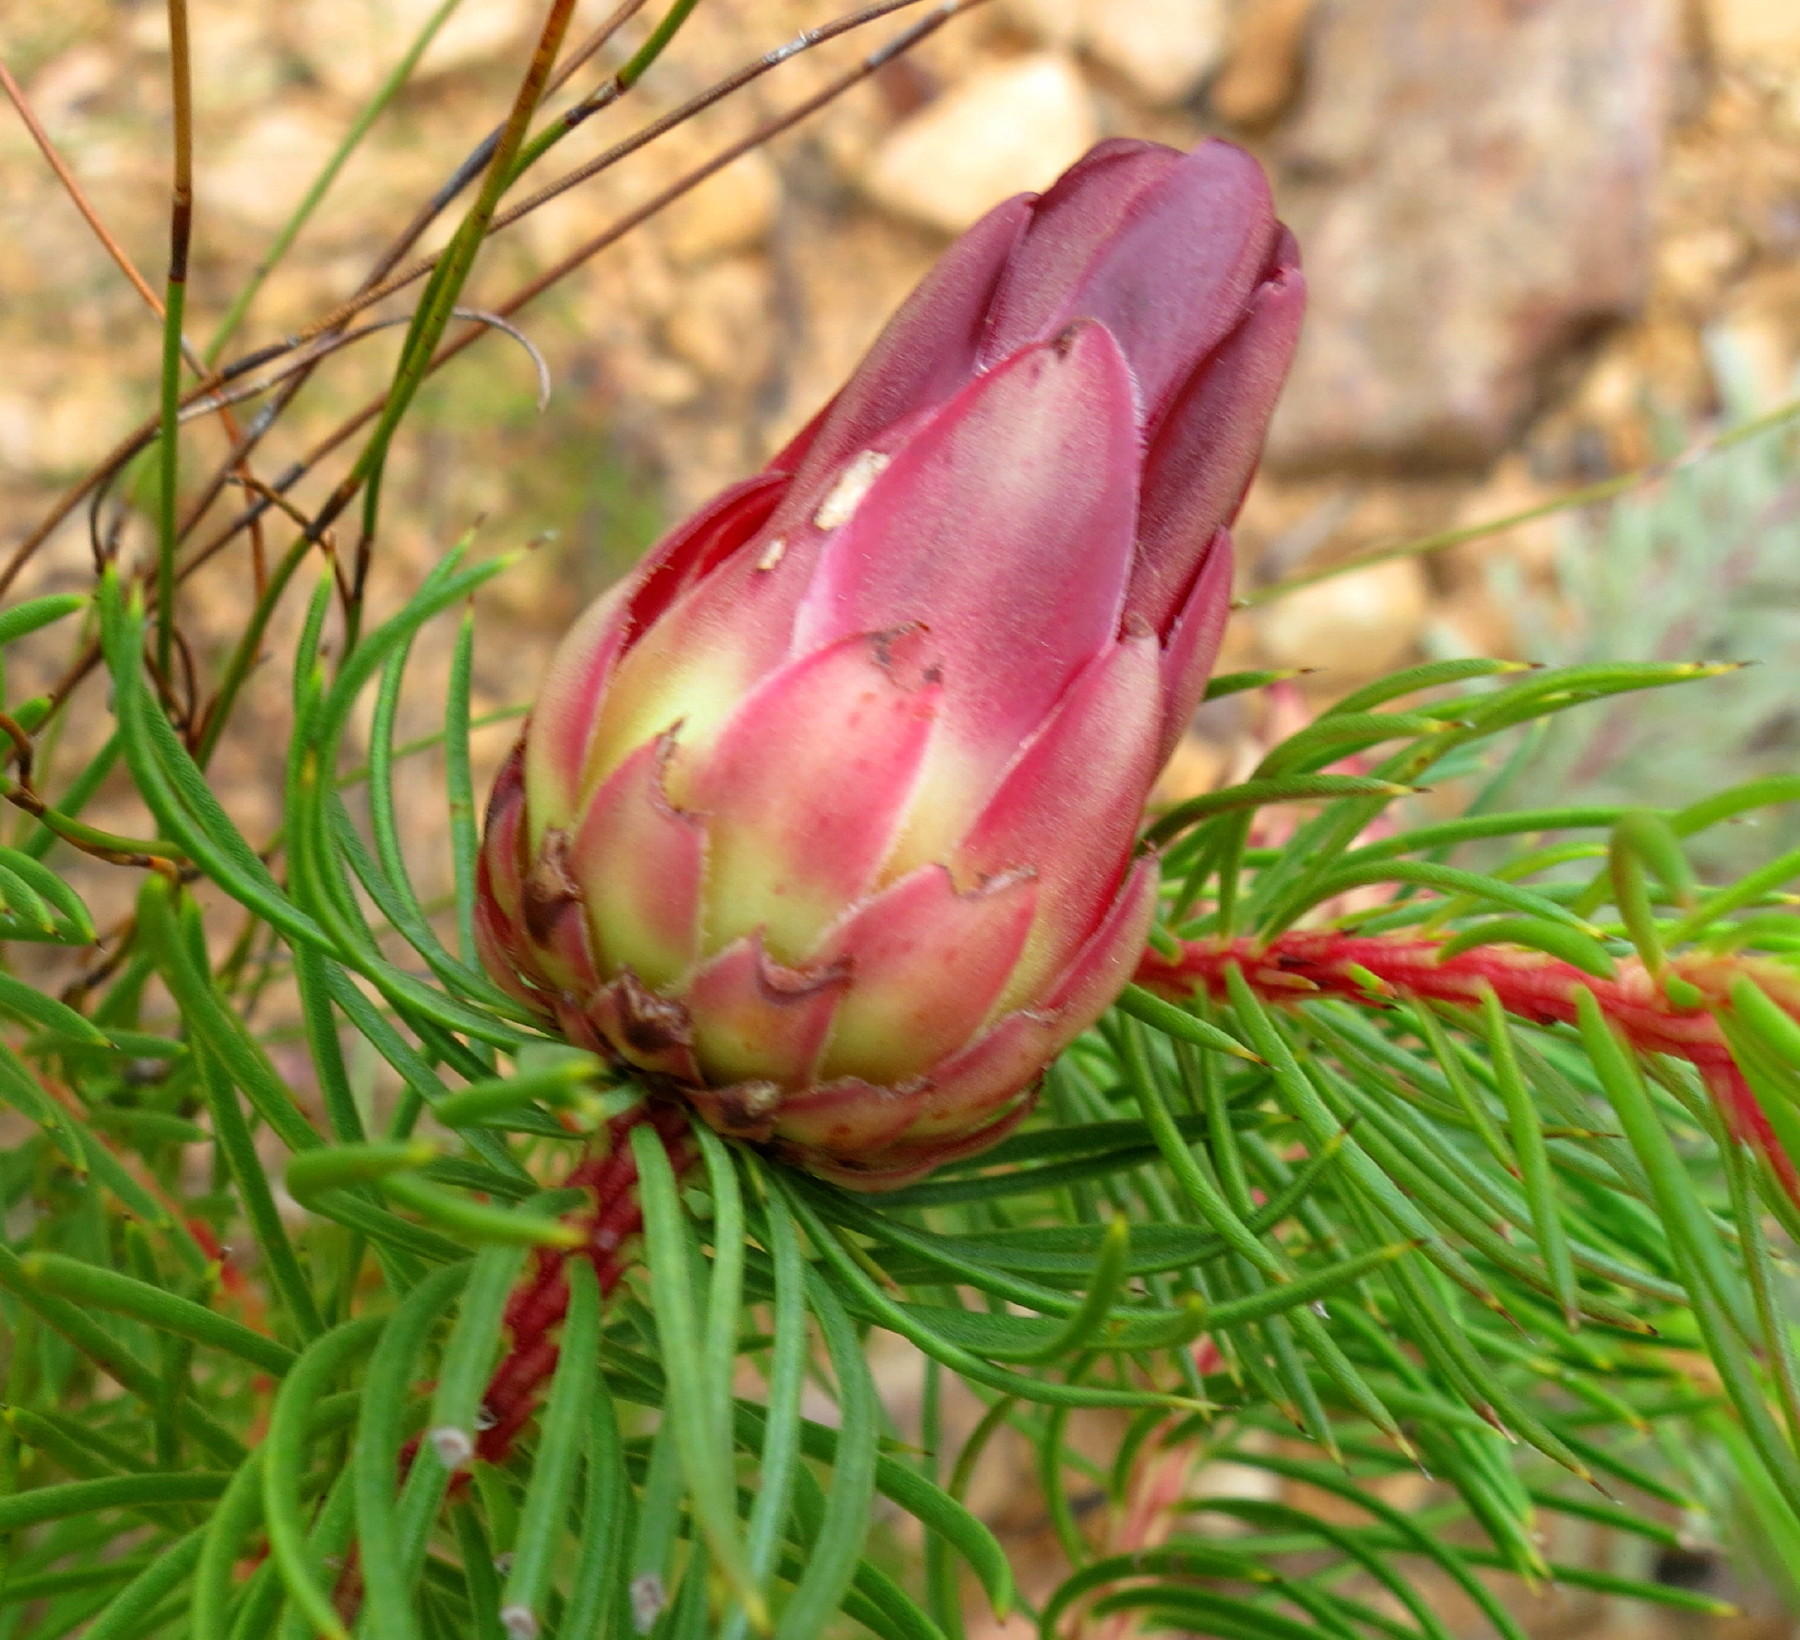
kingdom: Plantae
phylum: Tracheophyta
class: Magnoliopsida
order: Proteales
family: Proteaceae
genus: Protea
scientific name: Protea nana
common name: Mountain rose
